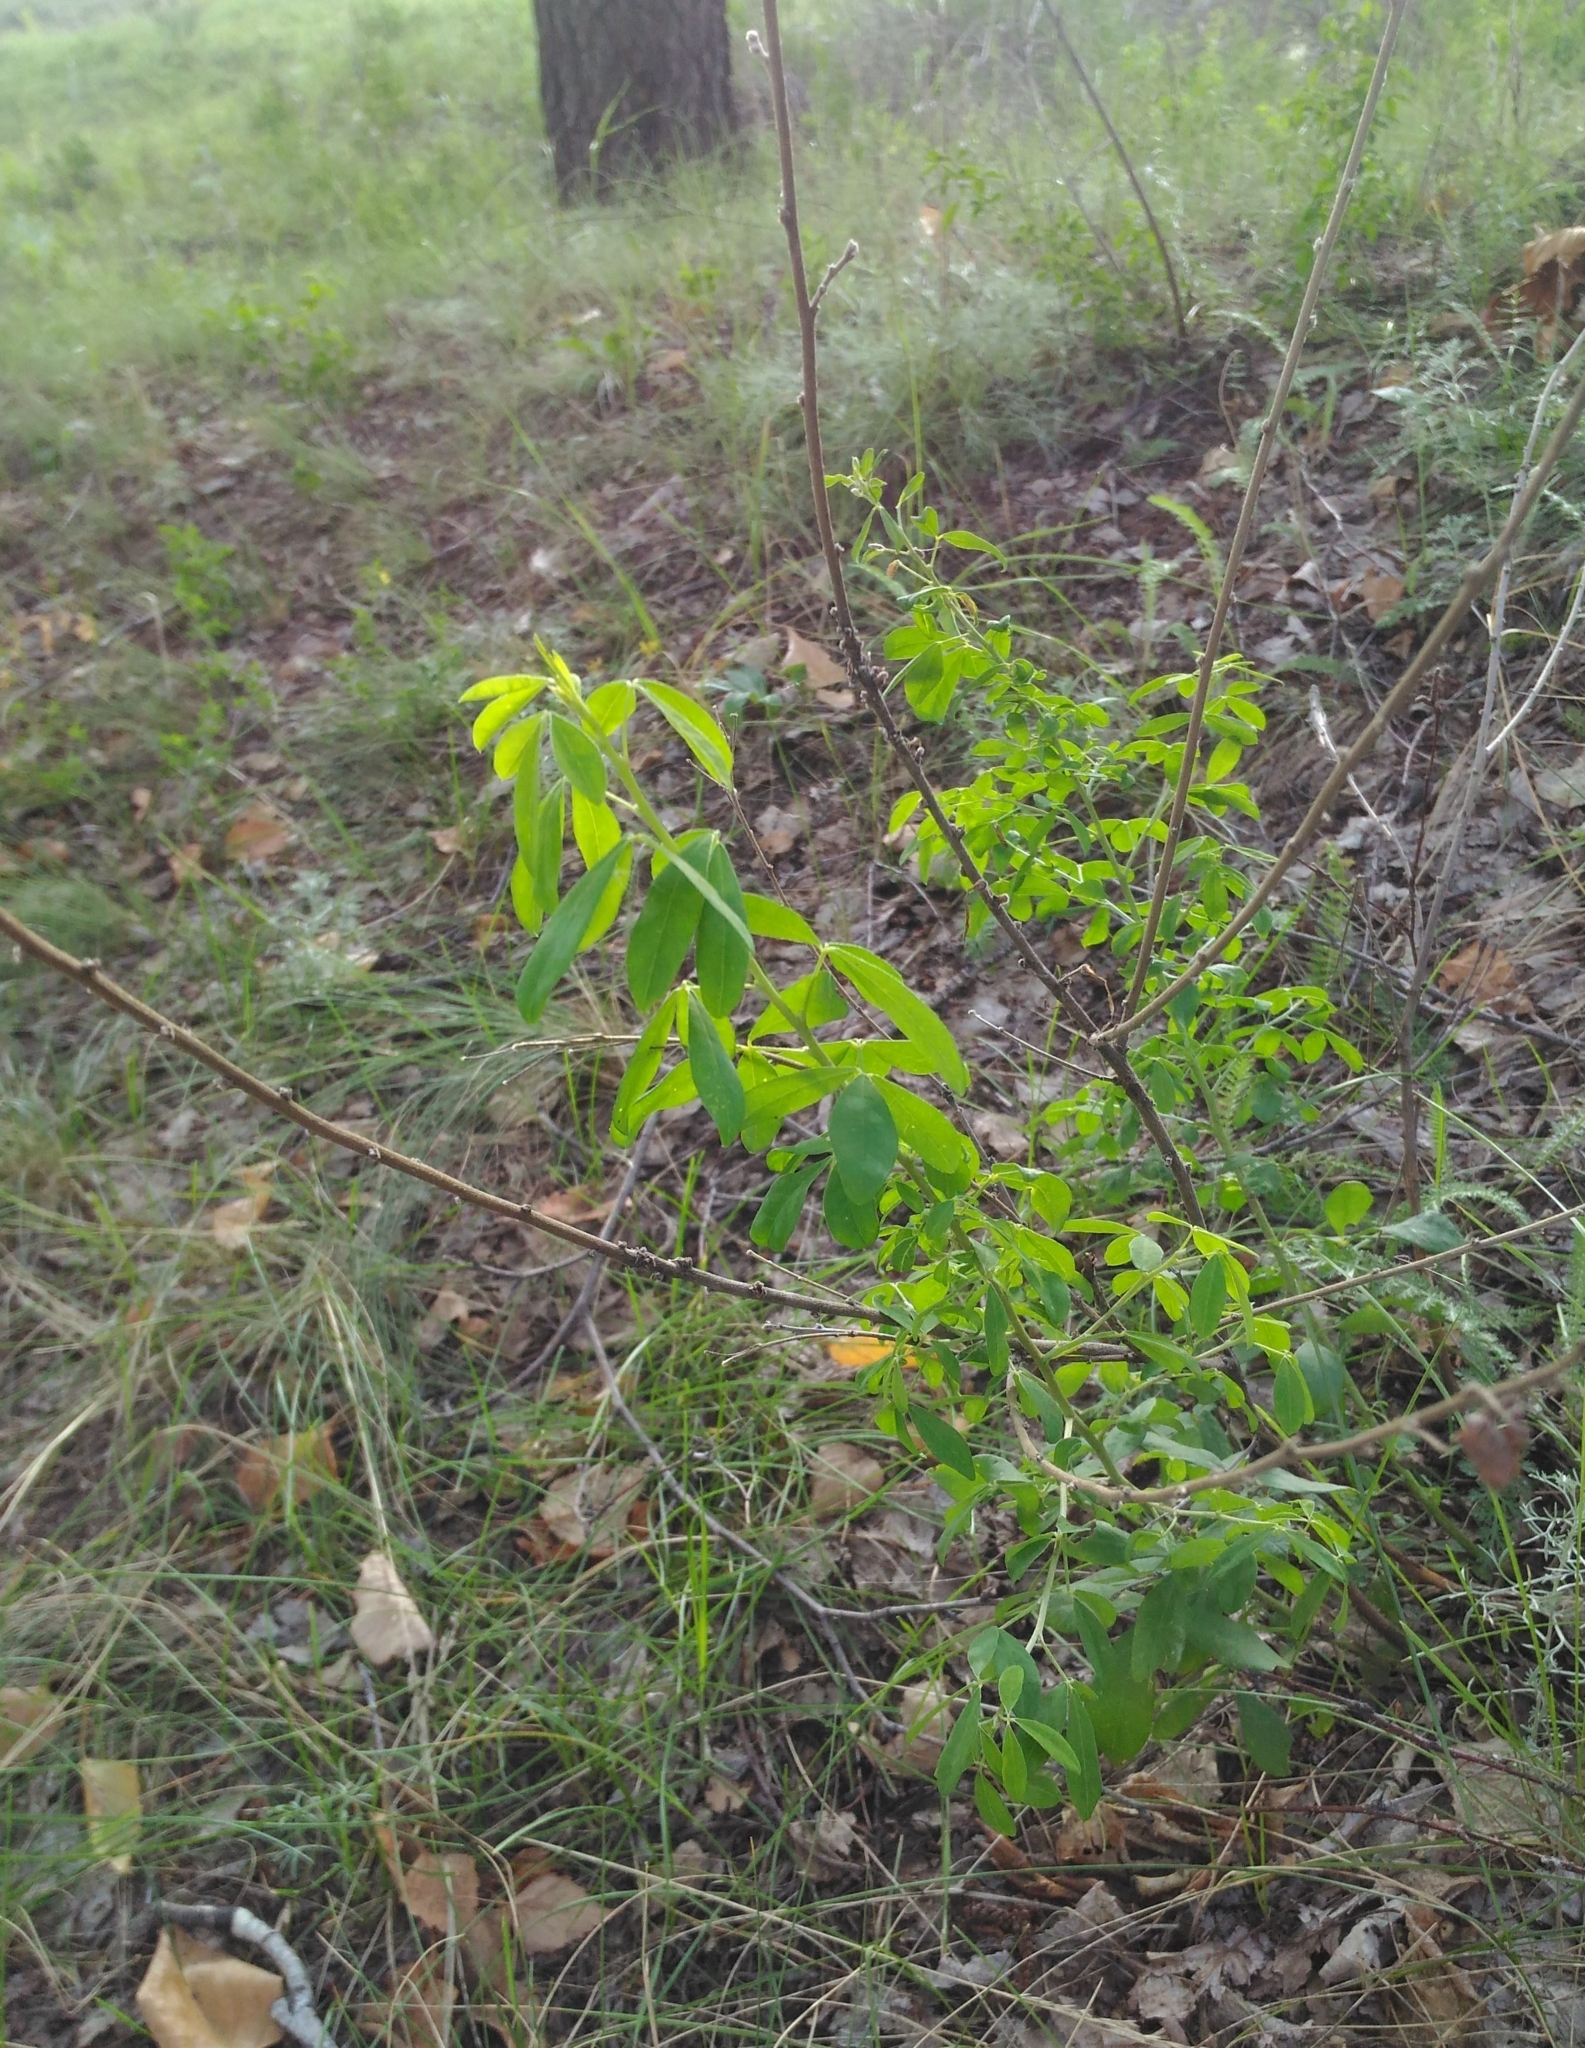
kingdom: Plantae
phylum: Tracheophyta
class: Magnoliopsida
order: Fabales
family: Fabaceae
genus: Chamaecytisus
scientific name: Chamaecytisus ruthenicus
